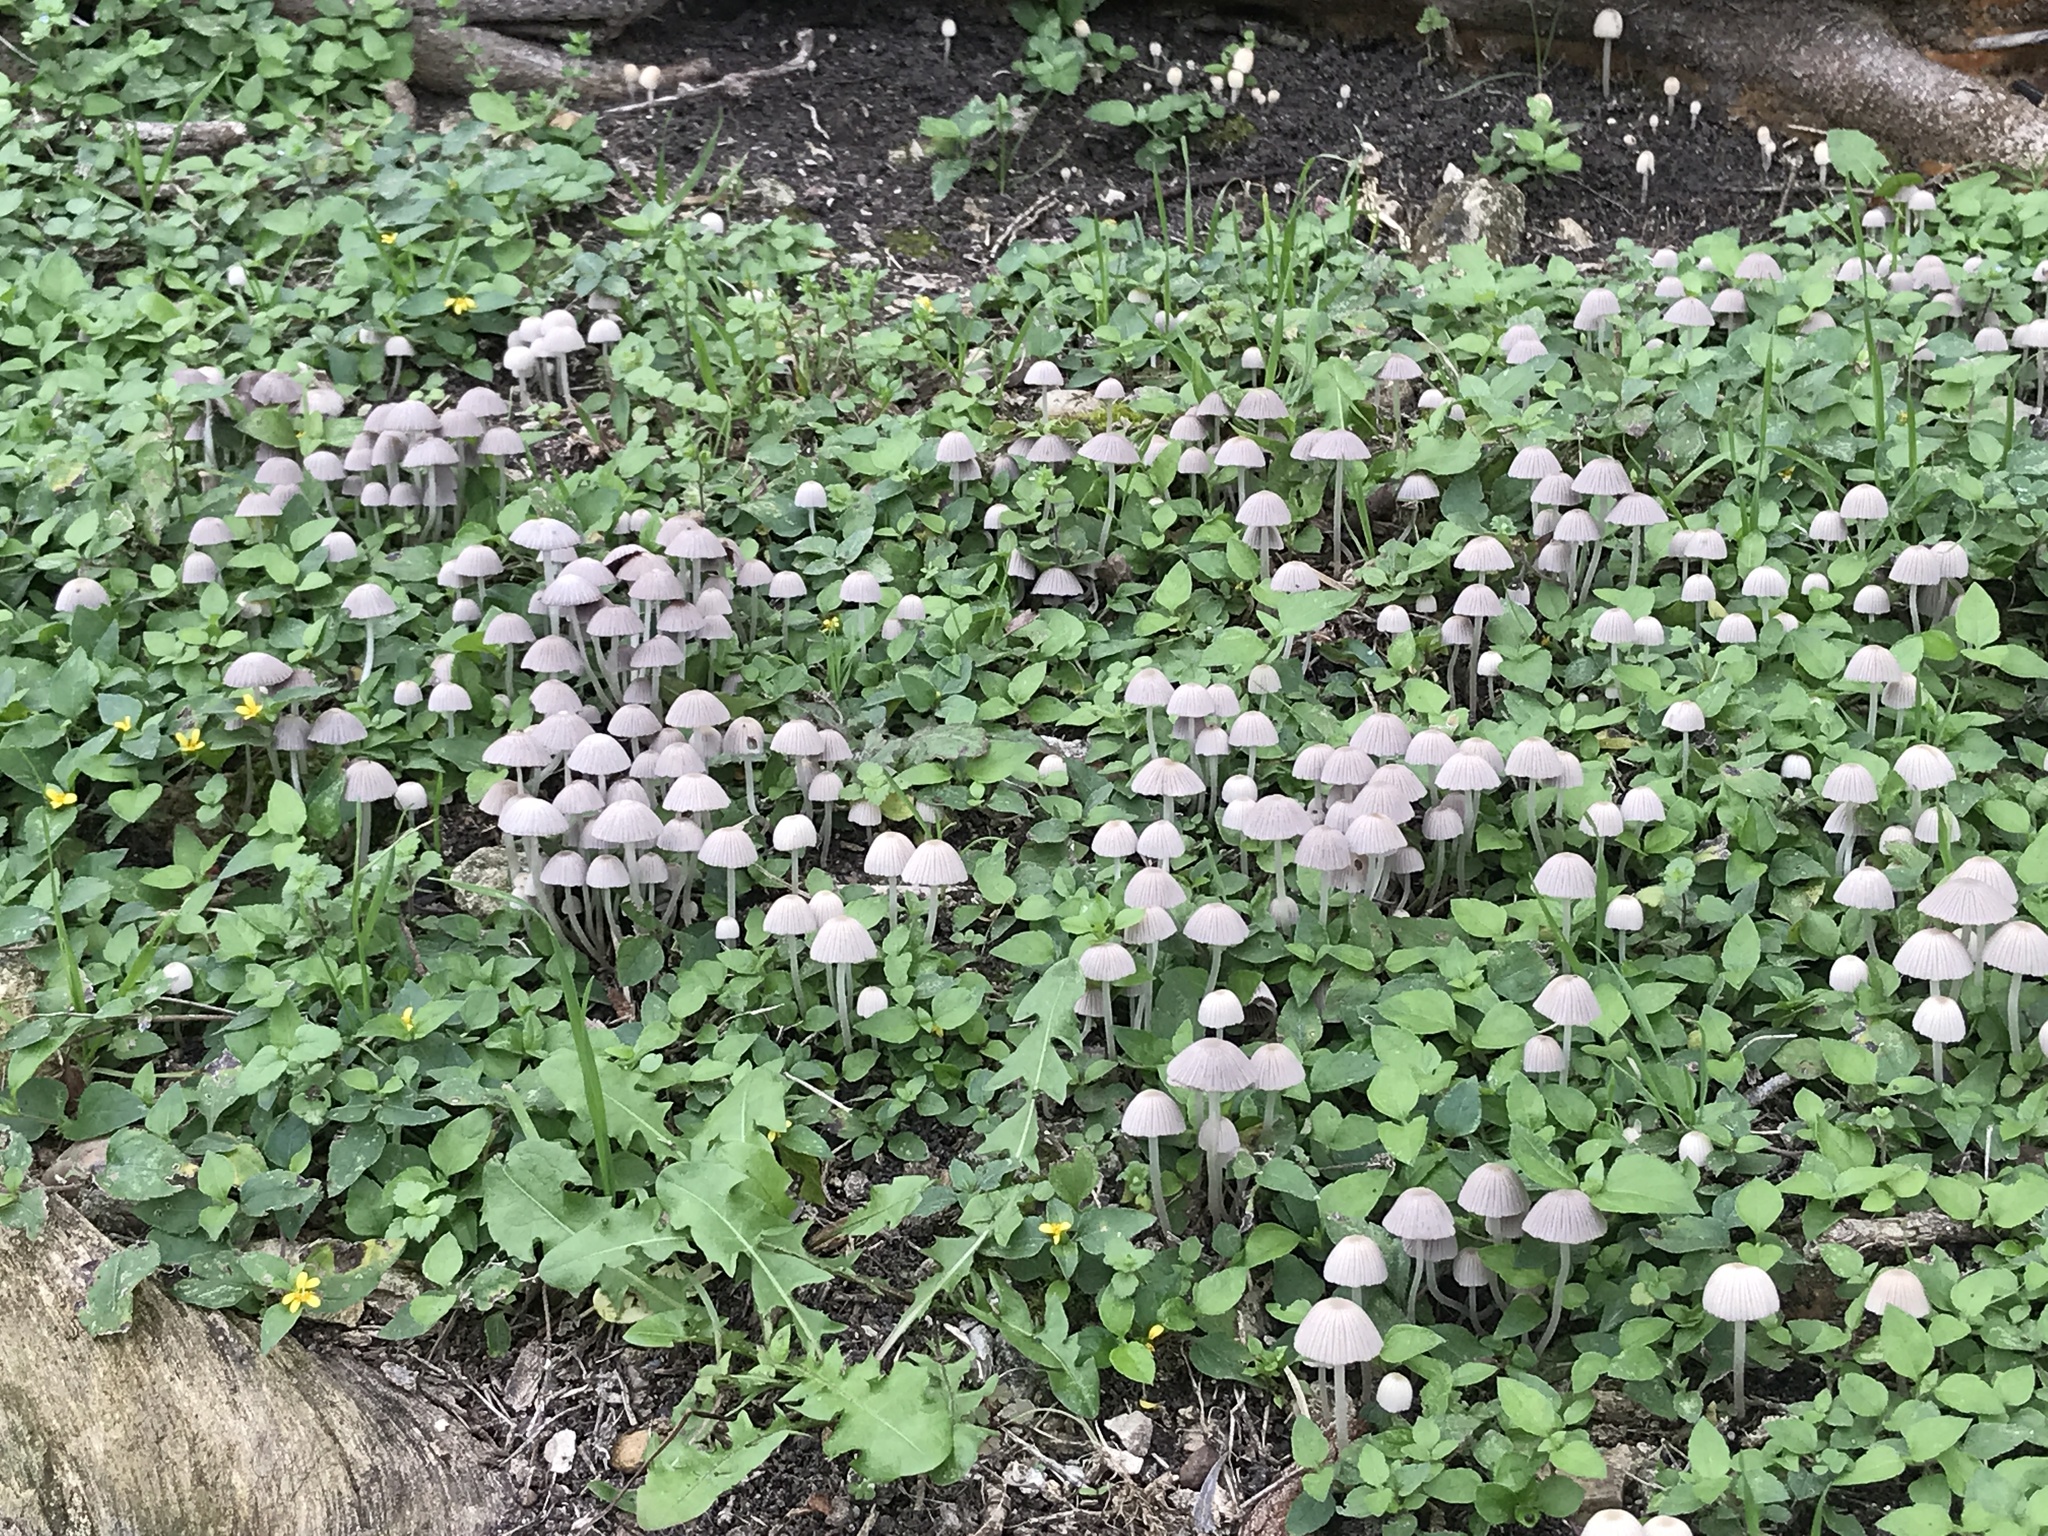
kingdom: Fungi
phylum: Basidiomycota
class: Agaricomycetes
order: Agaricales
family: Psathyrellaceae
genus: Coprinellus
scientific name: Coprinellus disseminatus
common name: Fairies' bonnets
